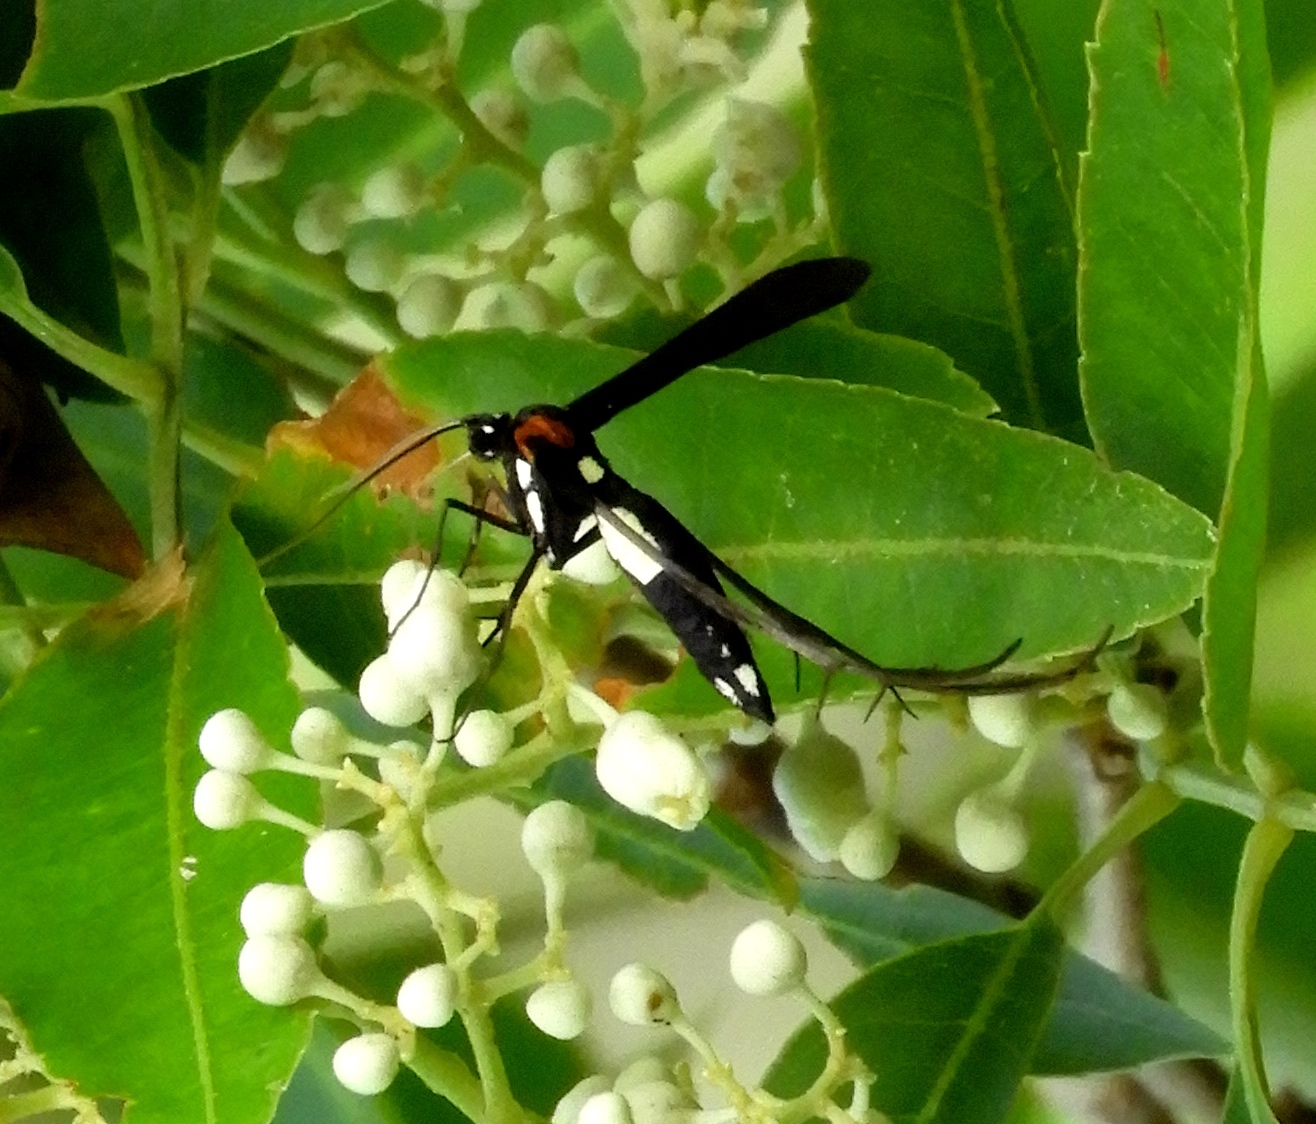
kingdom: Animalia
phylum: Arthropoda
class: Insecta
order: Lepidoptera
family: Pterophoridae
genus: Hellinsia
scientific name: Hellinsia chamelai
